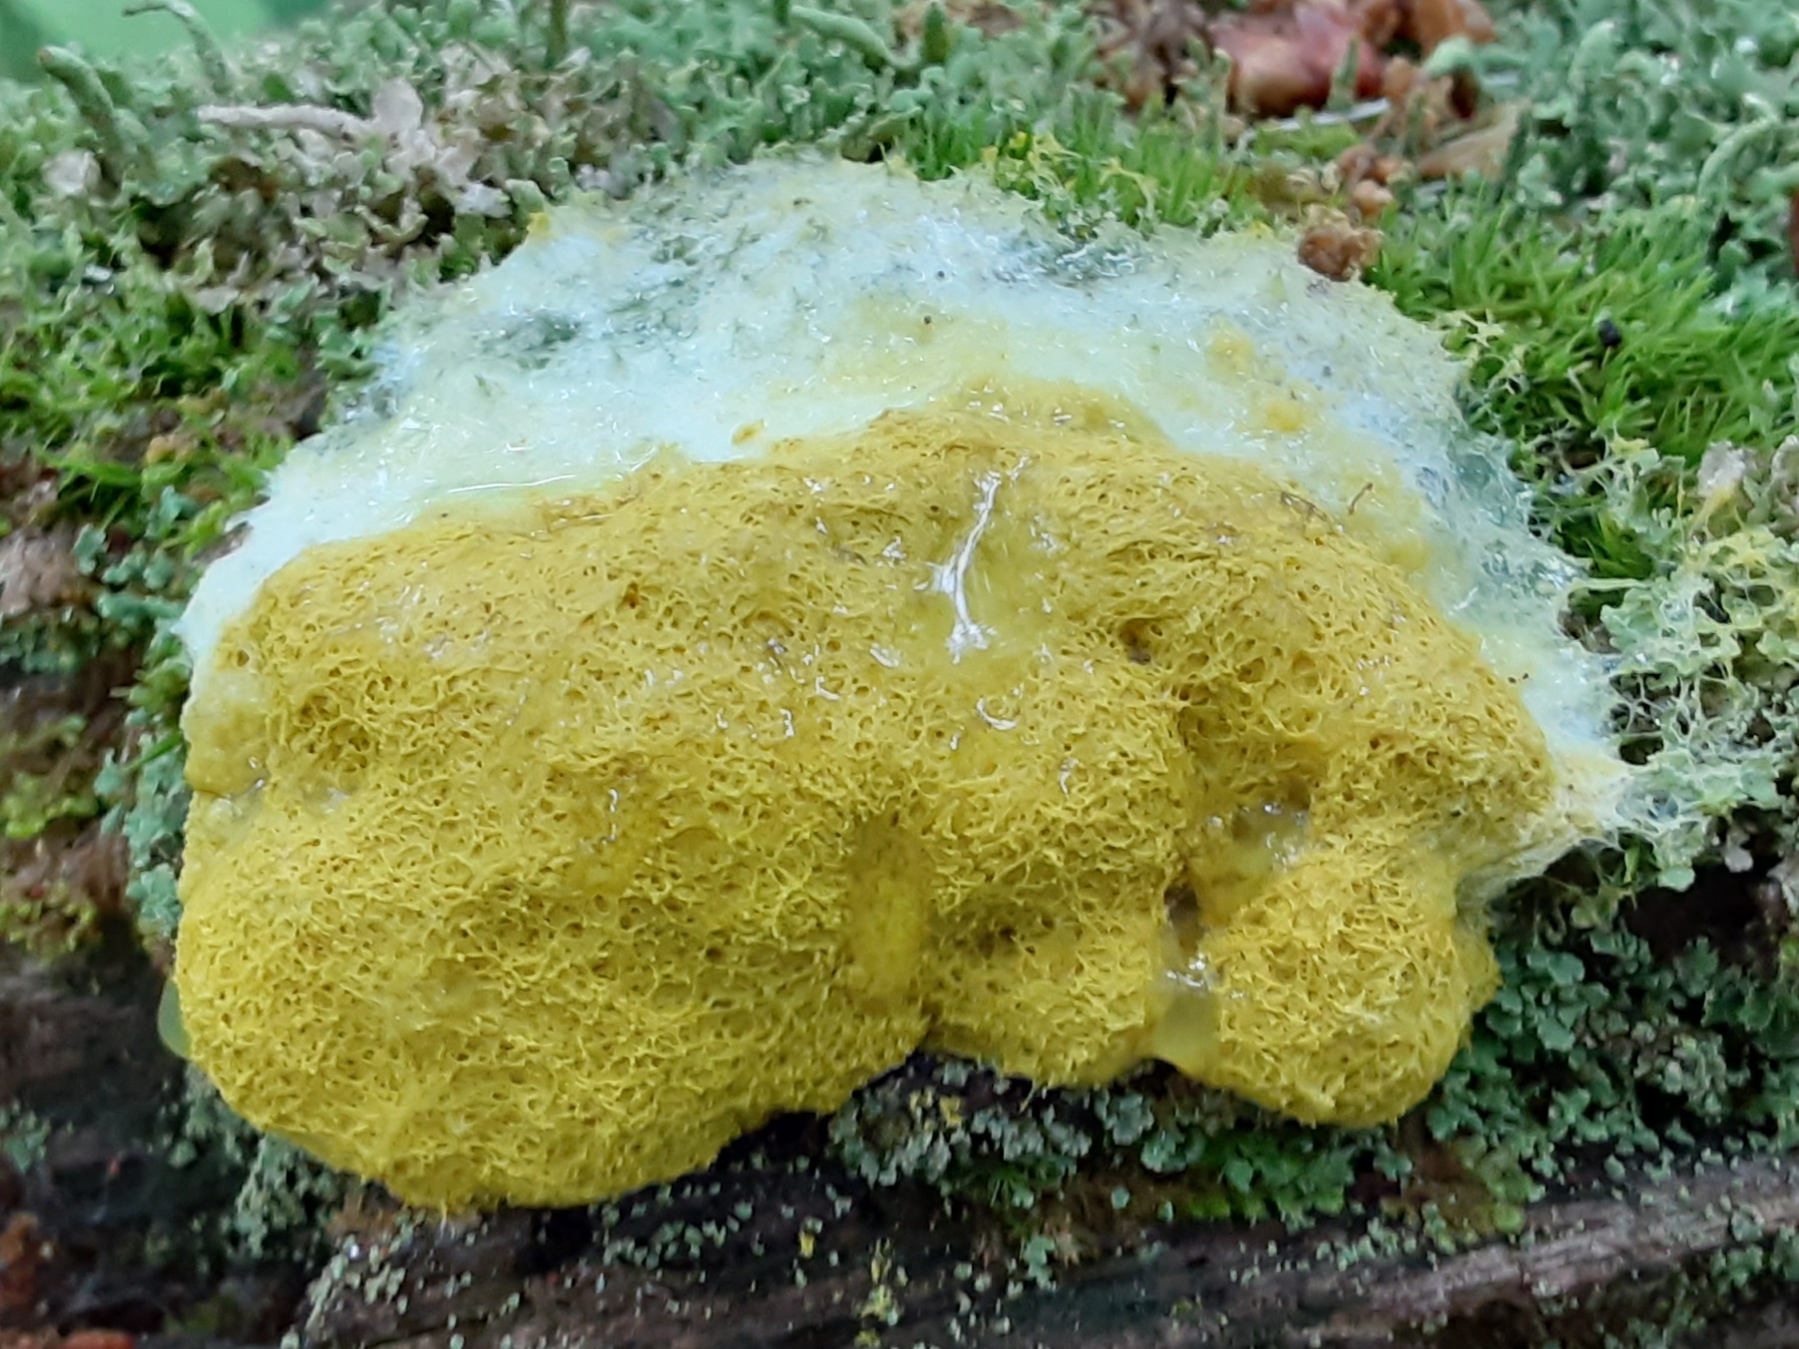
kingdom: Protozoa
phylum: Mycetozoa
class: Myxomycetes
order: Physarales
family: Physaraceae
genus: Fuligo
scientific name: Fuligo septica
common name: Dog vomit slime mold
